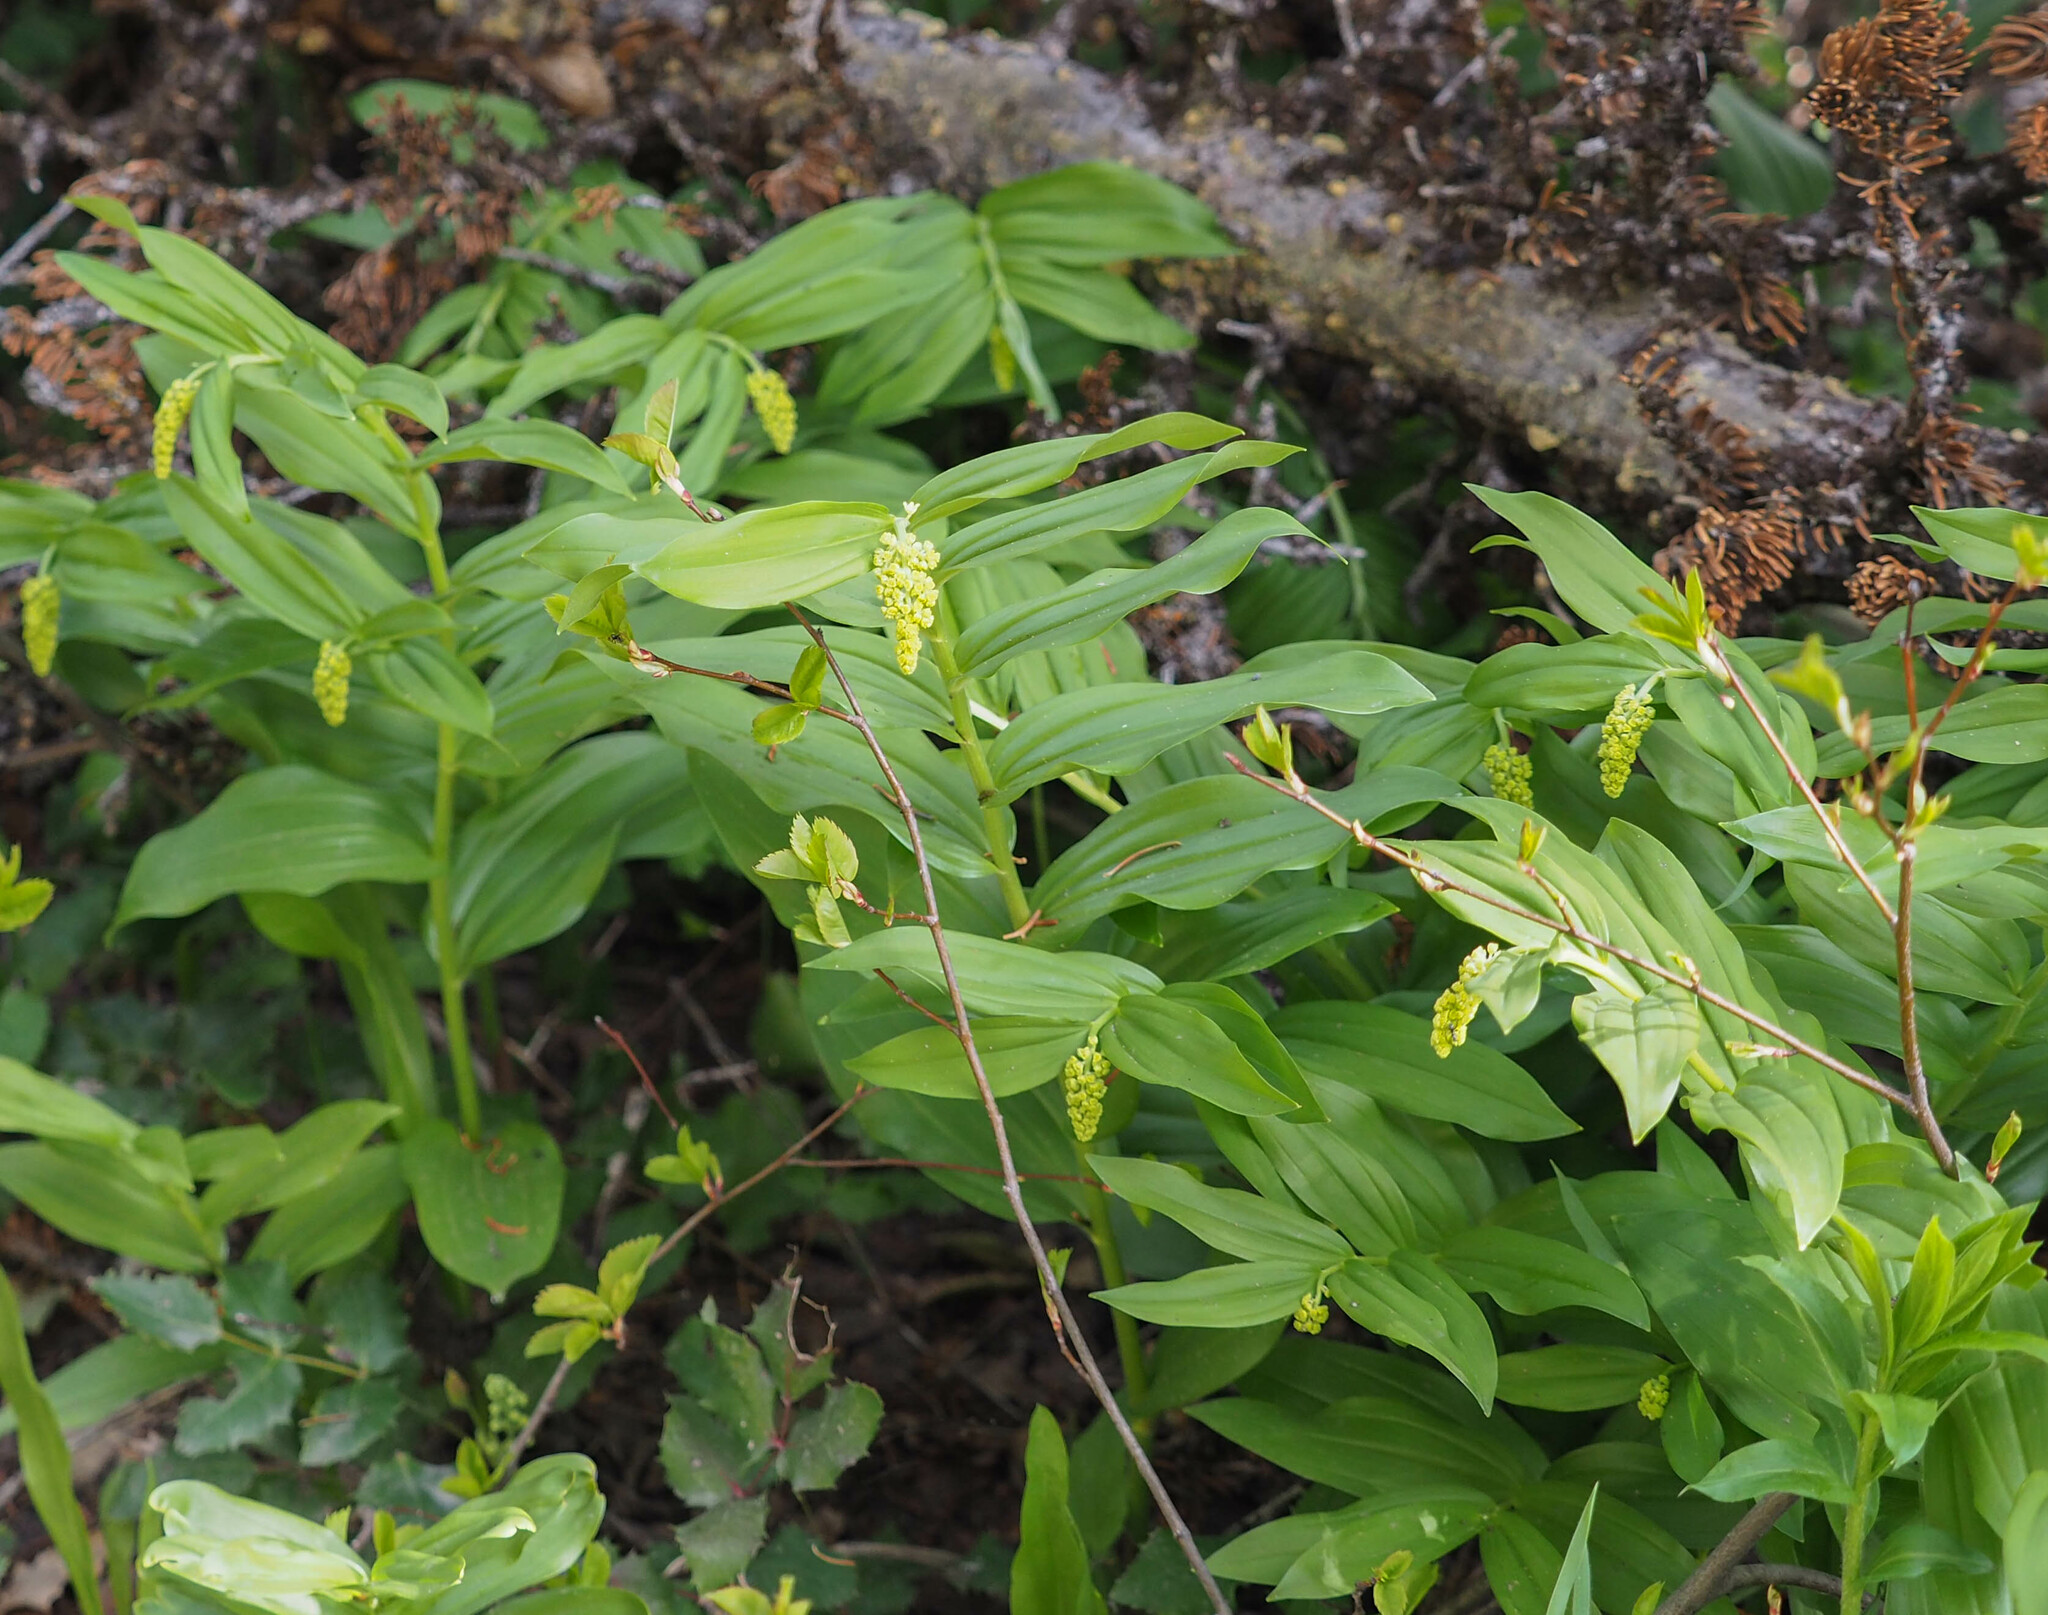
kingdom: Plantae
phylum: Tracheophyta
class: Liliopsida
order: Asparagales
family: Asparagaceae
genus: Maianthemum
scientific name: Maianthemum racemosum
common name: False spikenard
